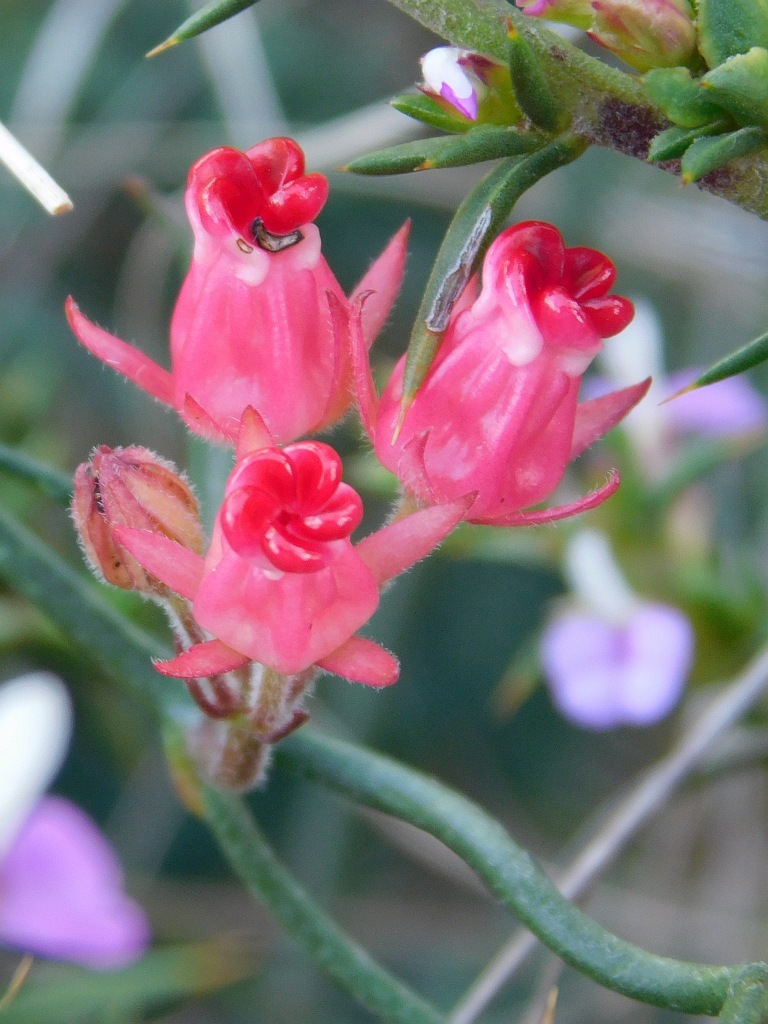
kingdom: Plantae
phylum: Tracheophyta
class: Magnoliopsida
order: Gentianales
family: Apocynaceae
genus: Microloma
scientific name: Microloma tenuifolium
